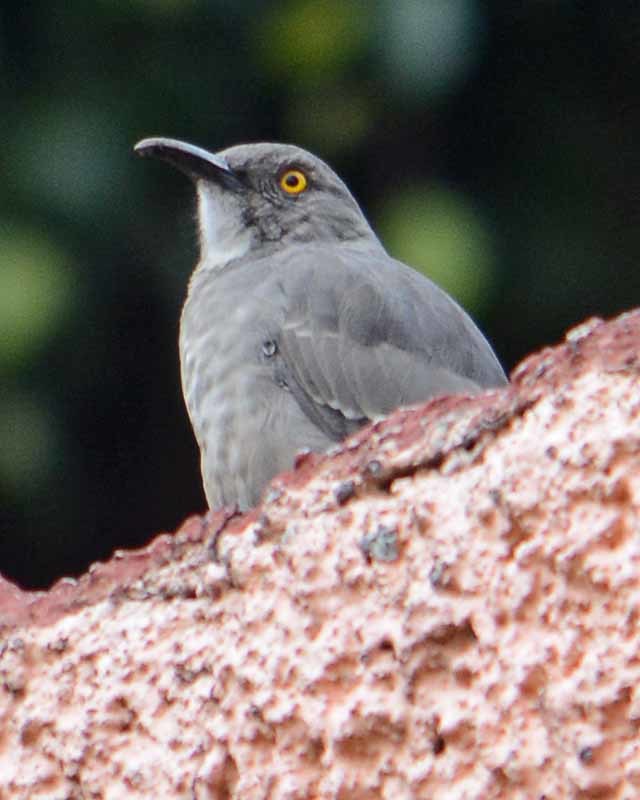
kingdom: Animalia
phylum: Chordata
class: Aves
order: Passeriformes
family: Mimidae
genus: Toxostoma
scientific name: Toxostoma curvirostre
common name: Curve-billed thrasher
